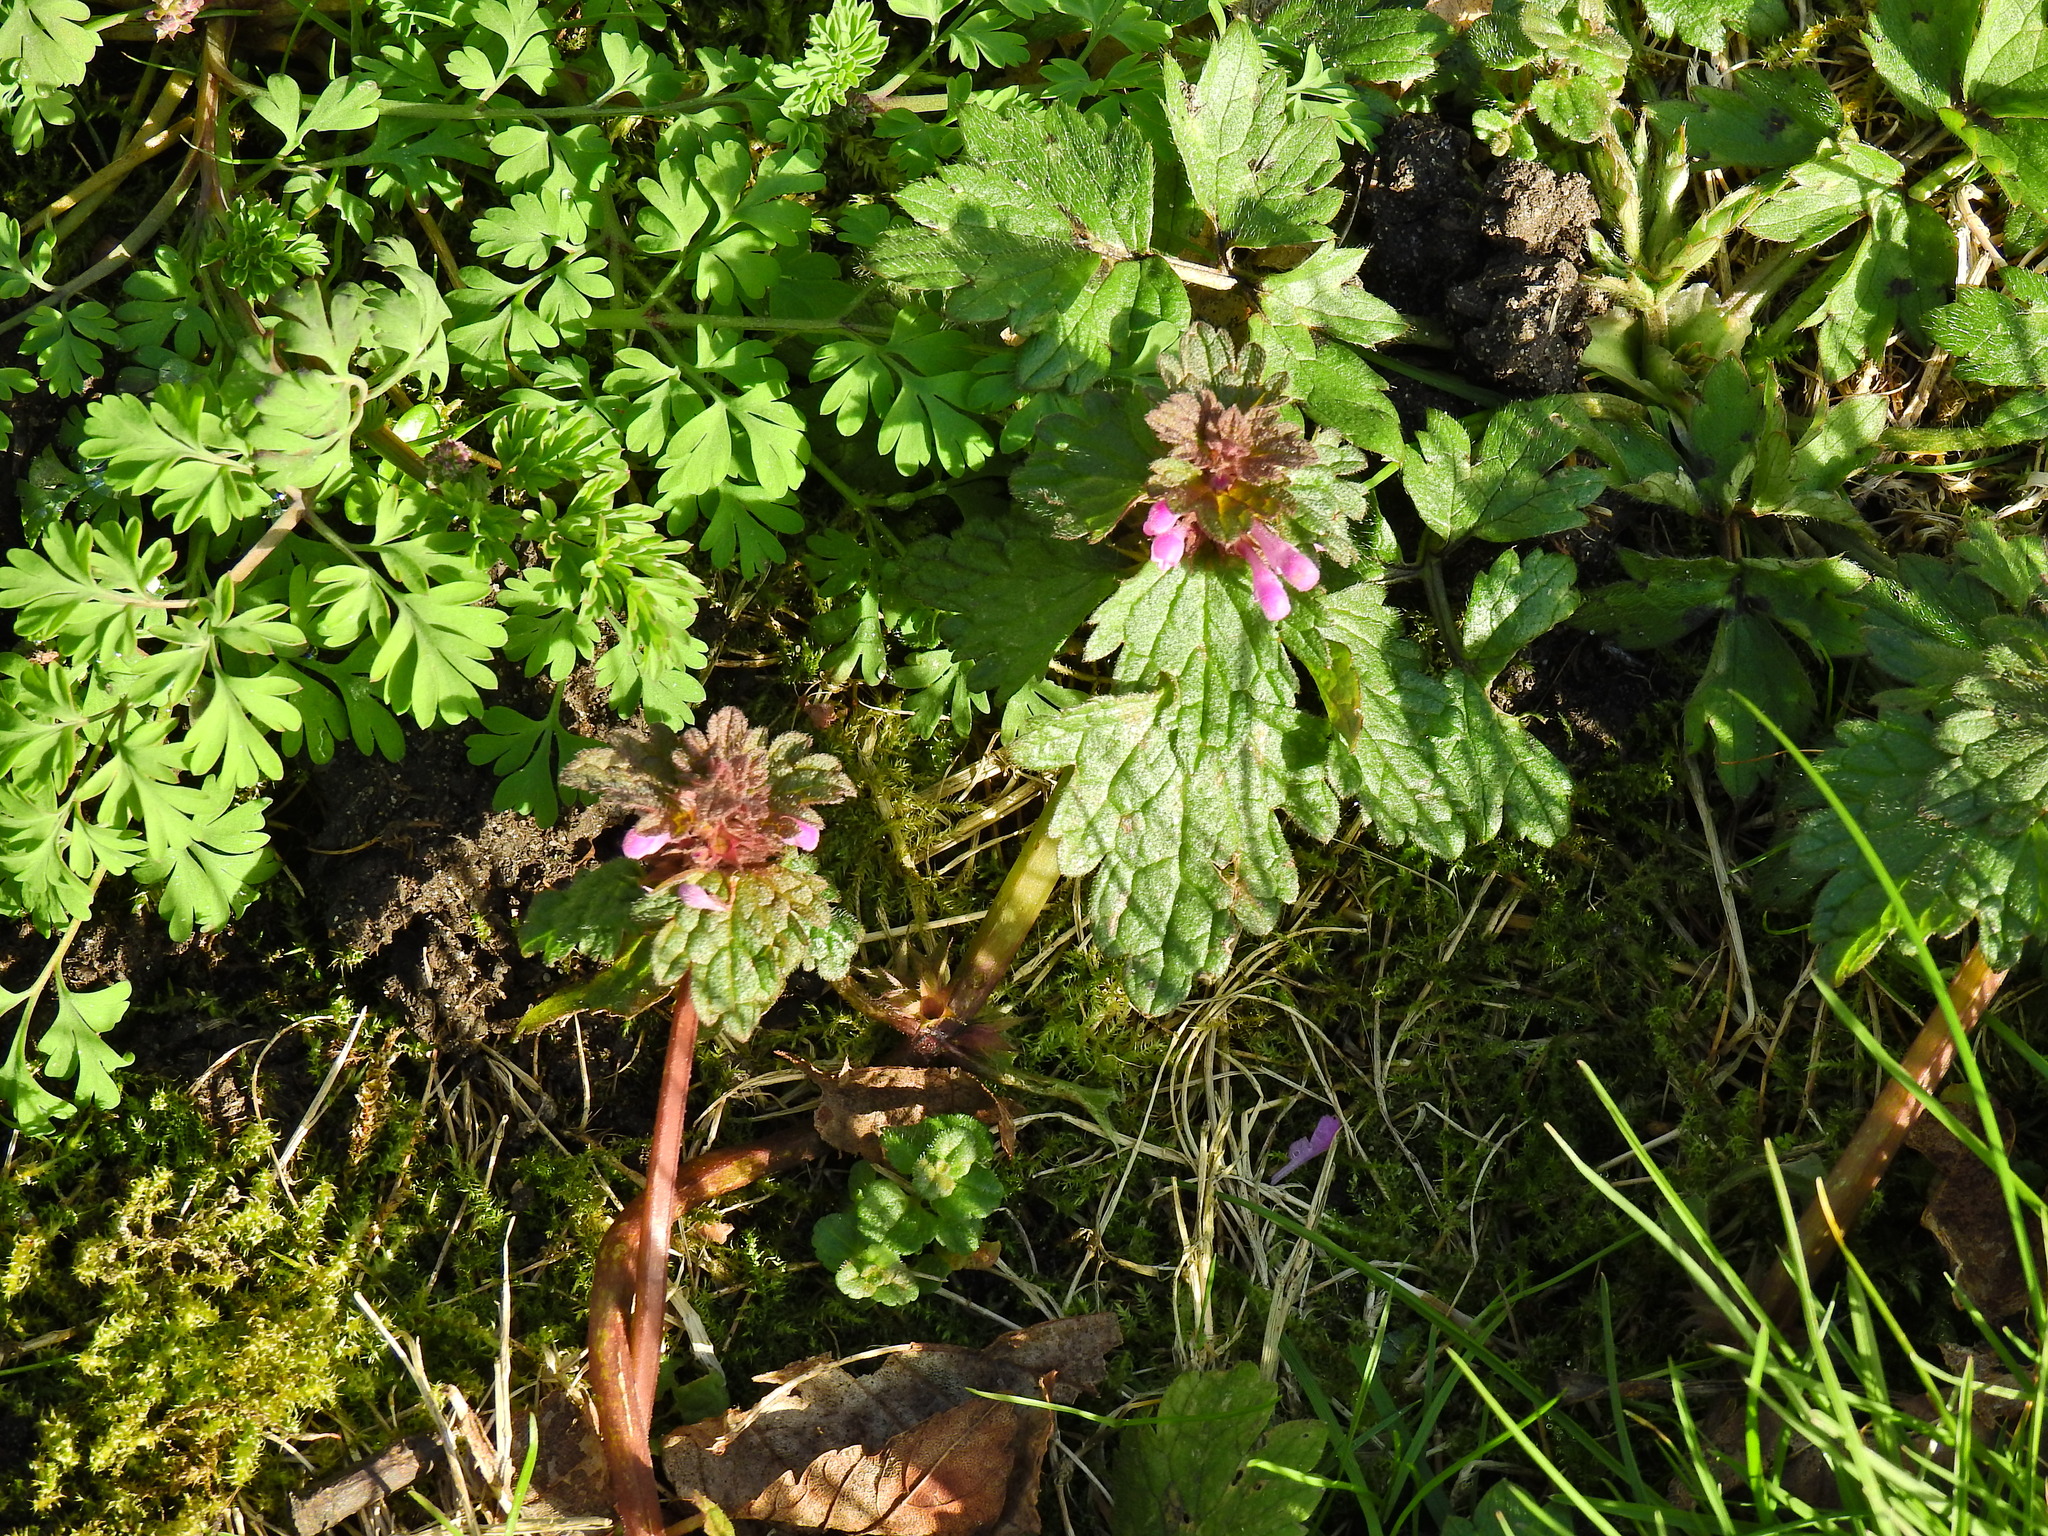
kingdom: Plantae
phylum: Tracheophyta
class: Magnoliopsida
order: Lamiales
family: Lamiaceae
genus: Lamium
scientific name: Lamium purpureum
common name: Red dead-nettle
